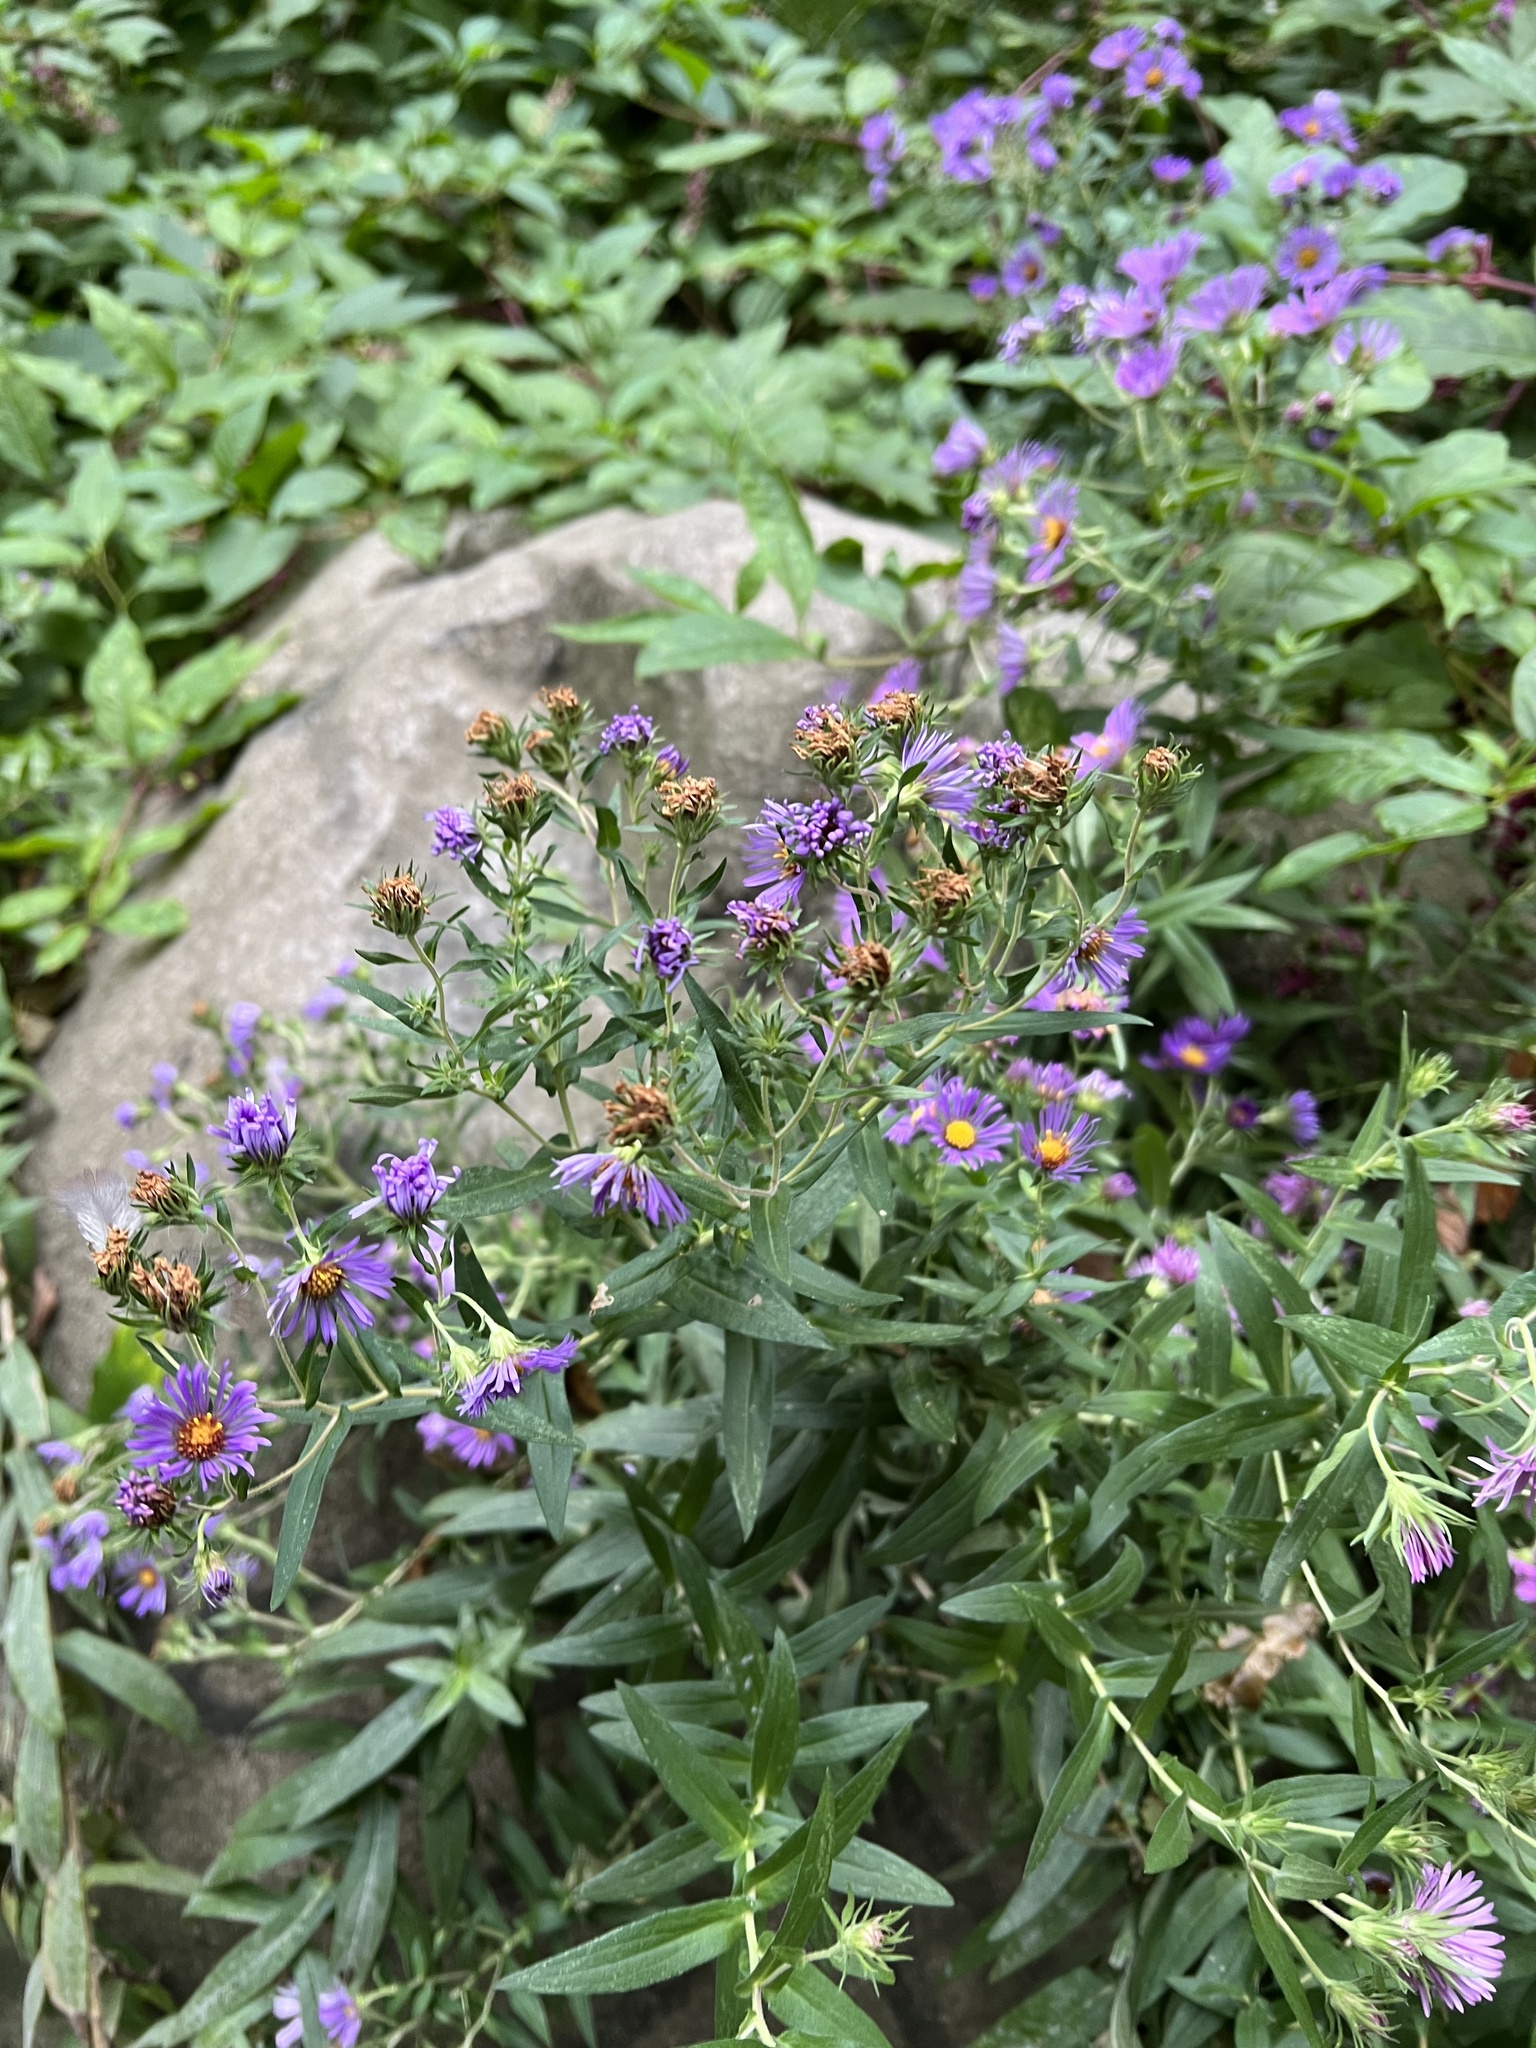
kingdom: Plantae
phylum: Tracheophyta
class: Magnoliopsida
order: Asterales
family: Asteraceae
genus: Symphyotrichum
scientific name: Symphyotrichum novae-angliae
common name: Michaelmas daisy
